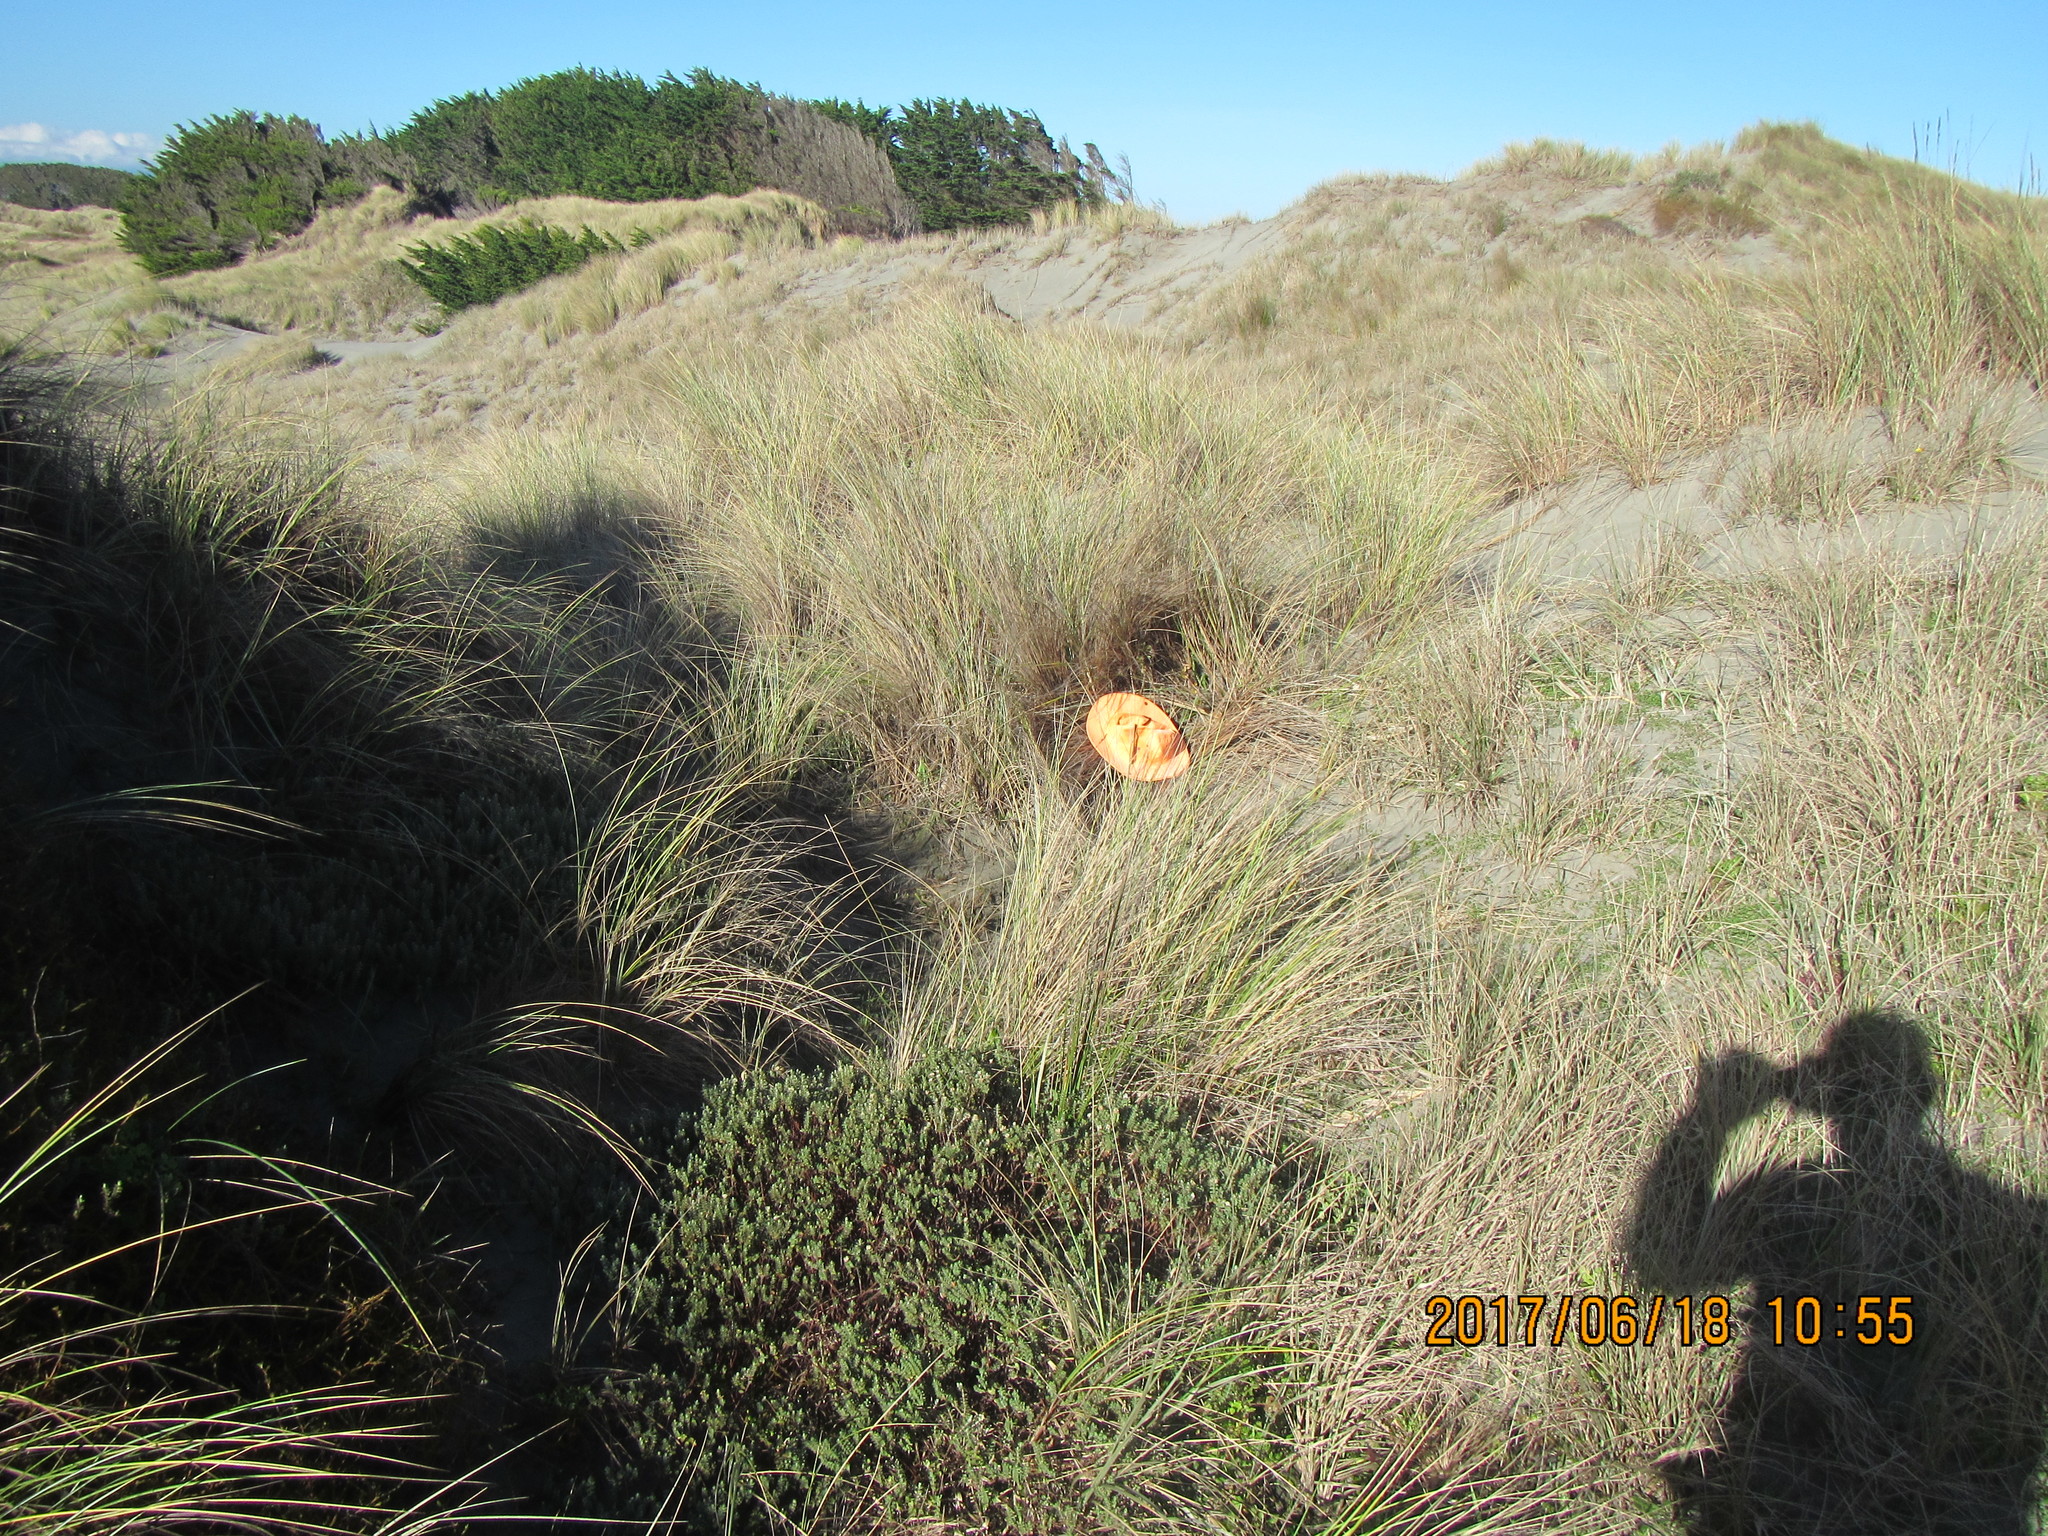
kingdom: Animalia
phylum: Arthropoda
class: Arachnida
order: Araneae
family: Thomisidae
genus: Sidymella
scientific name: Sidymella trapezia
